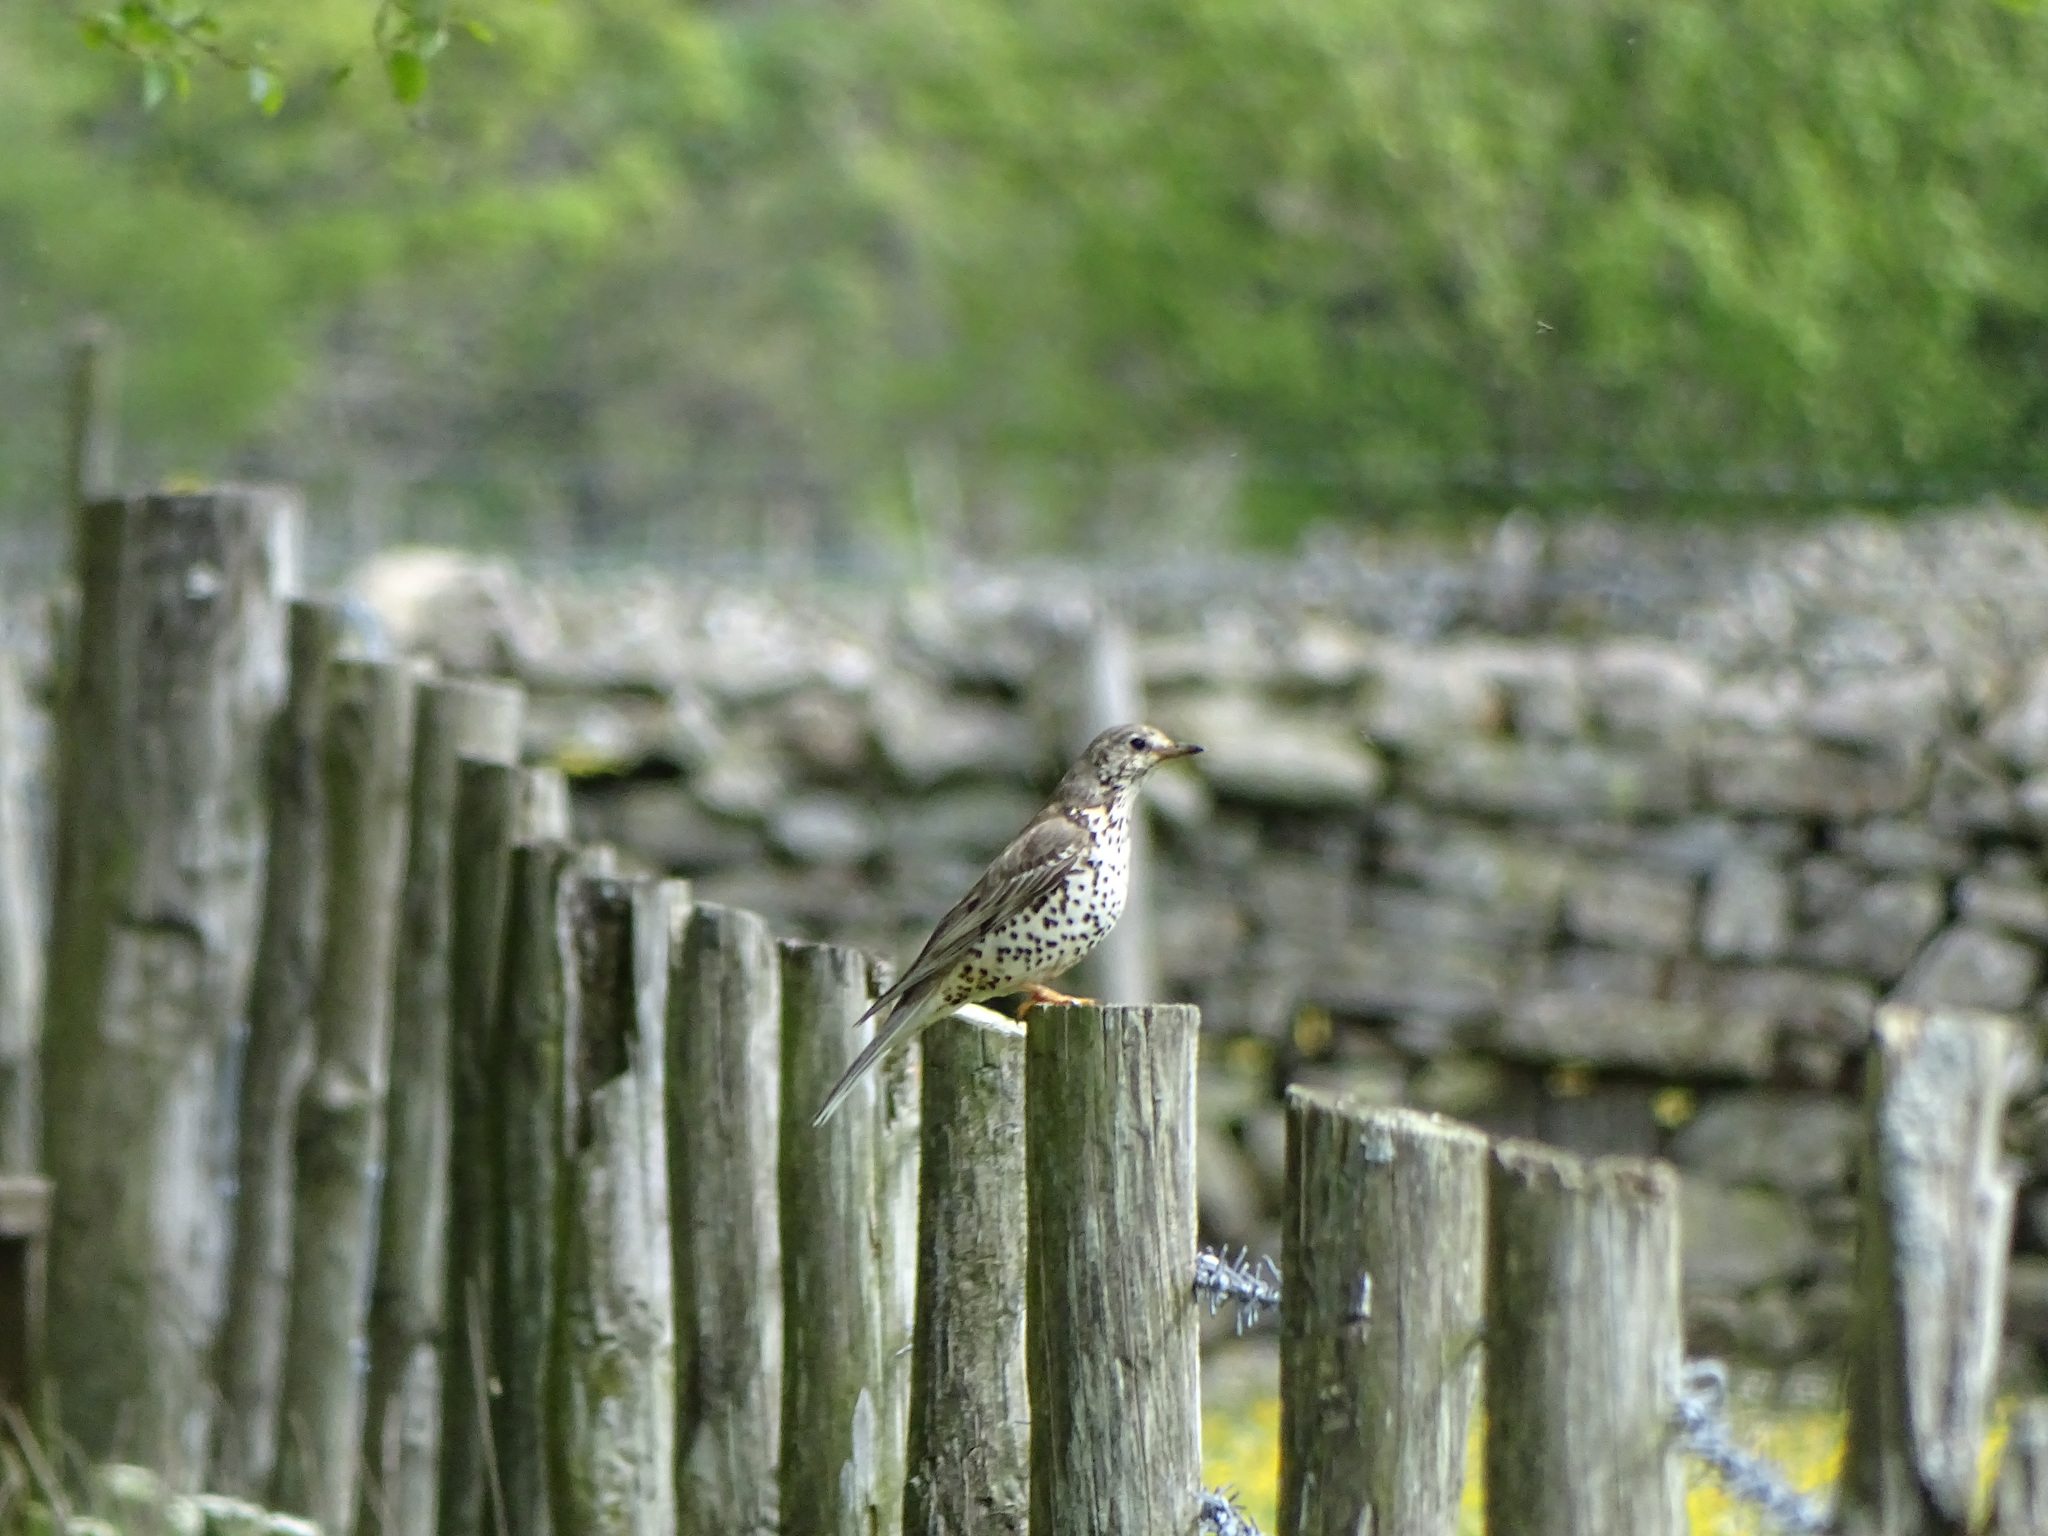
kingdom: Animalia
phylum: Chordata
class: Aves
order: Passeriformes
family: Turdidae
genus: Turdus
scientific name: Turdus viscivorus
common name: Mistle thrush
